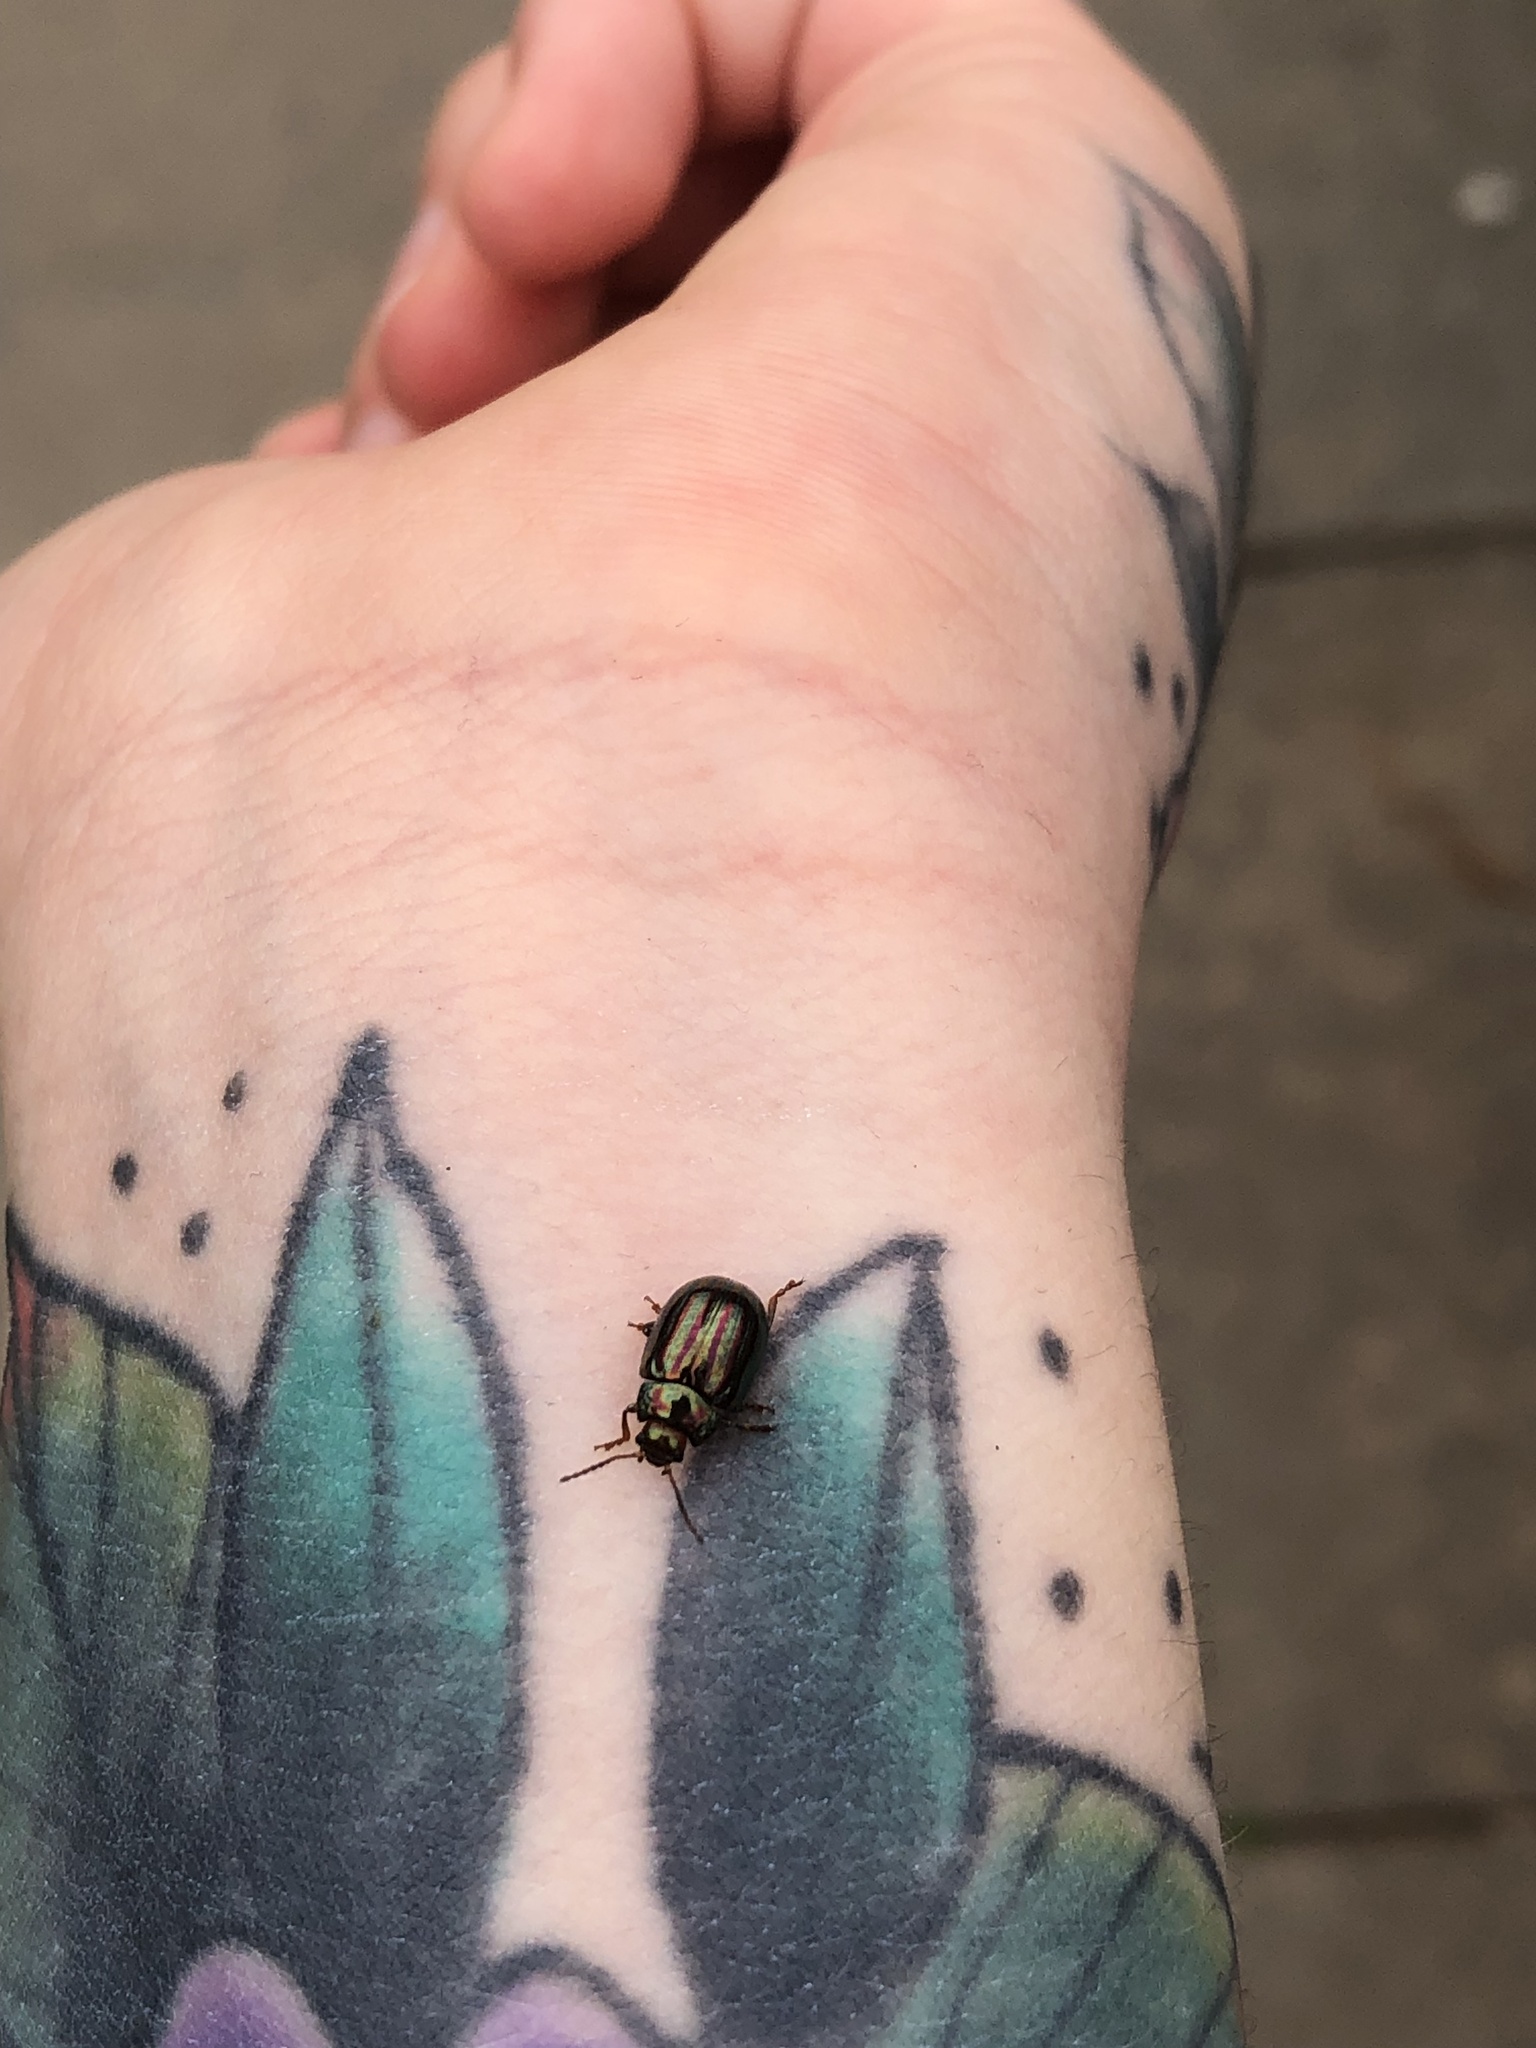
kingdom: Animalia
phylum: Arthropoda
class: Insecta
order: Coleoptera
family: Chrysomelidae
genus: Chrysolina
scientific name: Chrysolina americana
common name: Rosemary beetle
